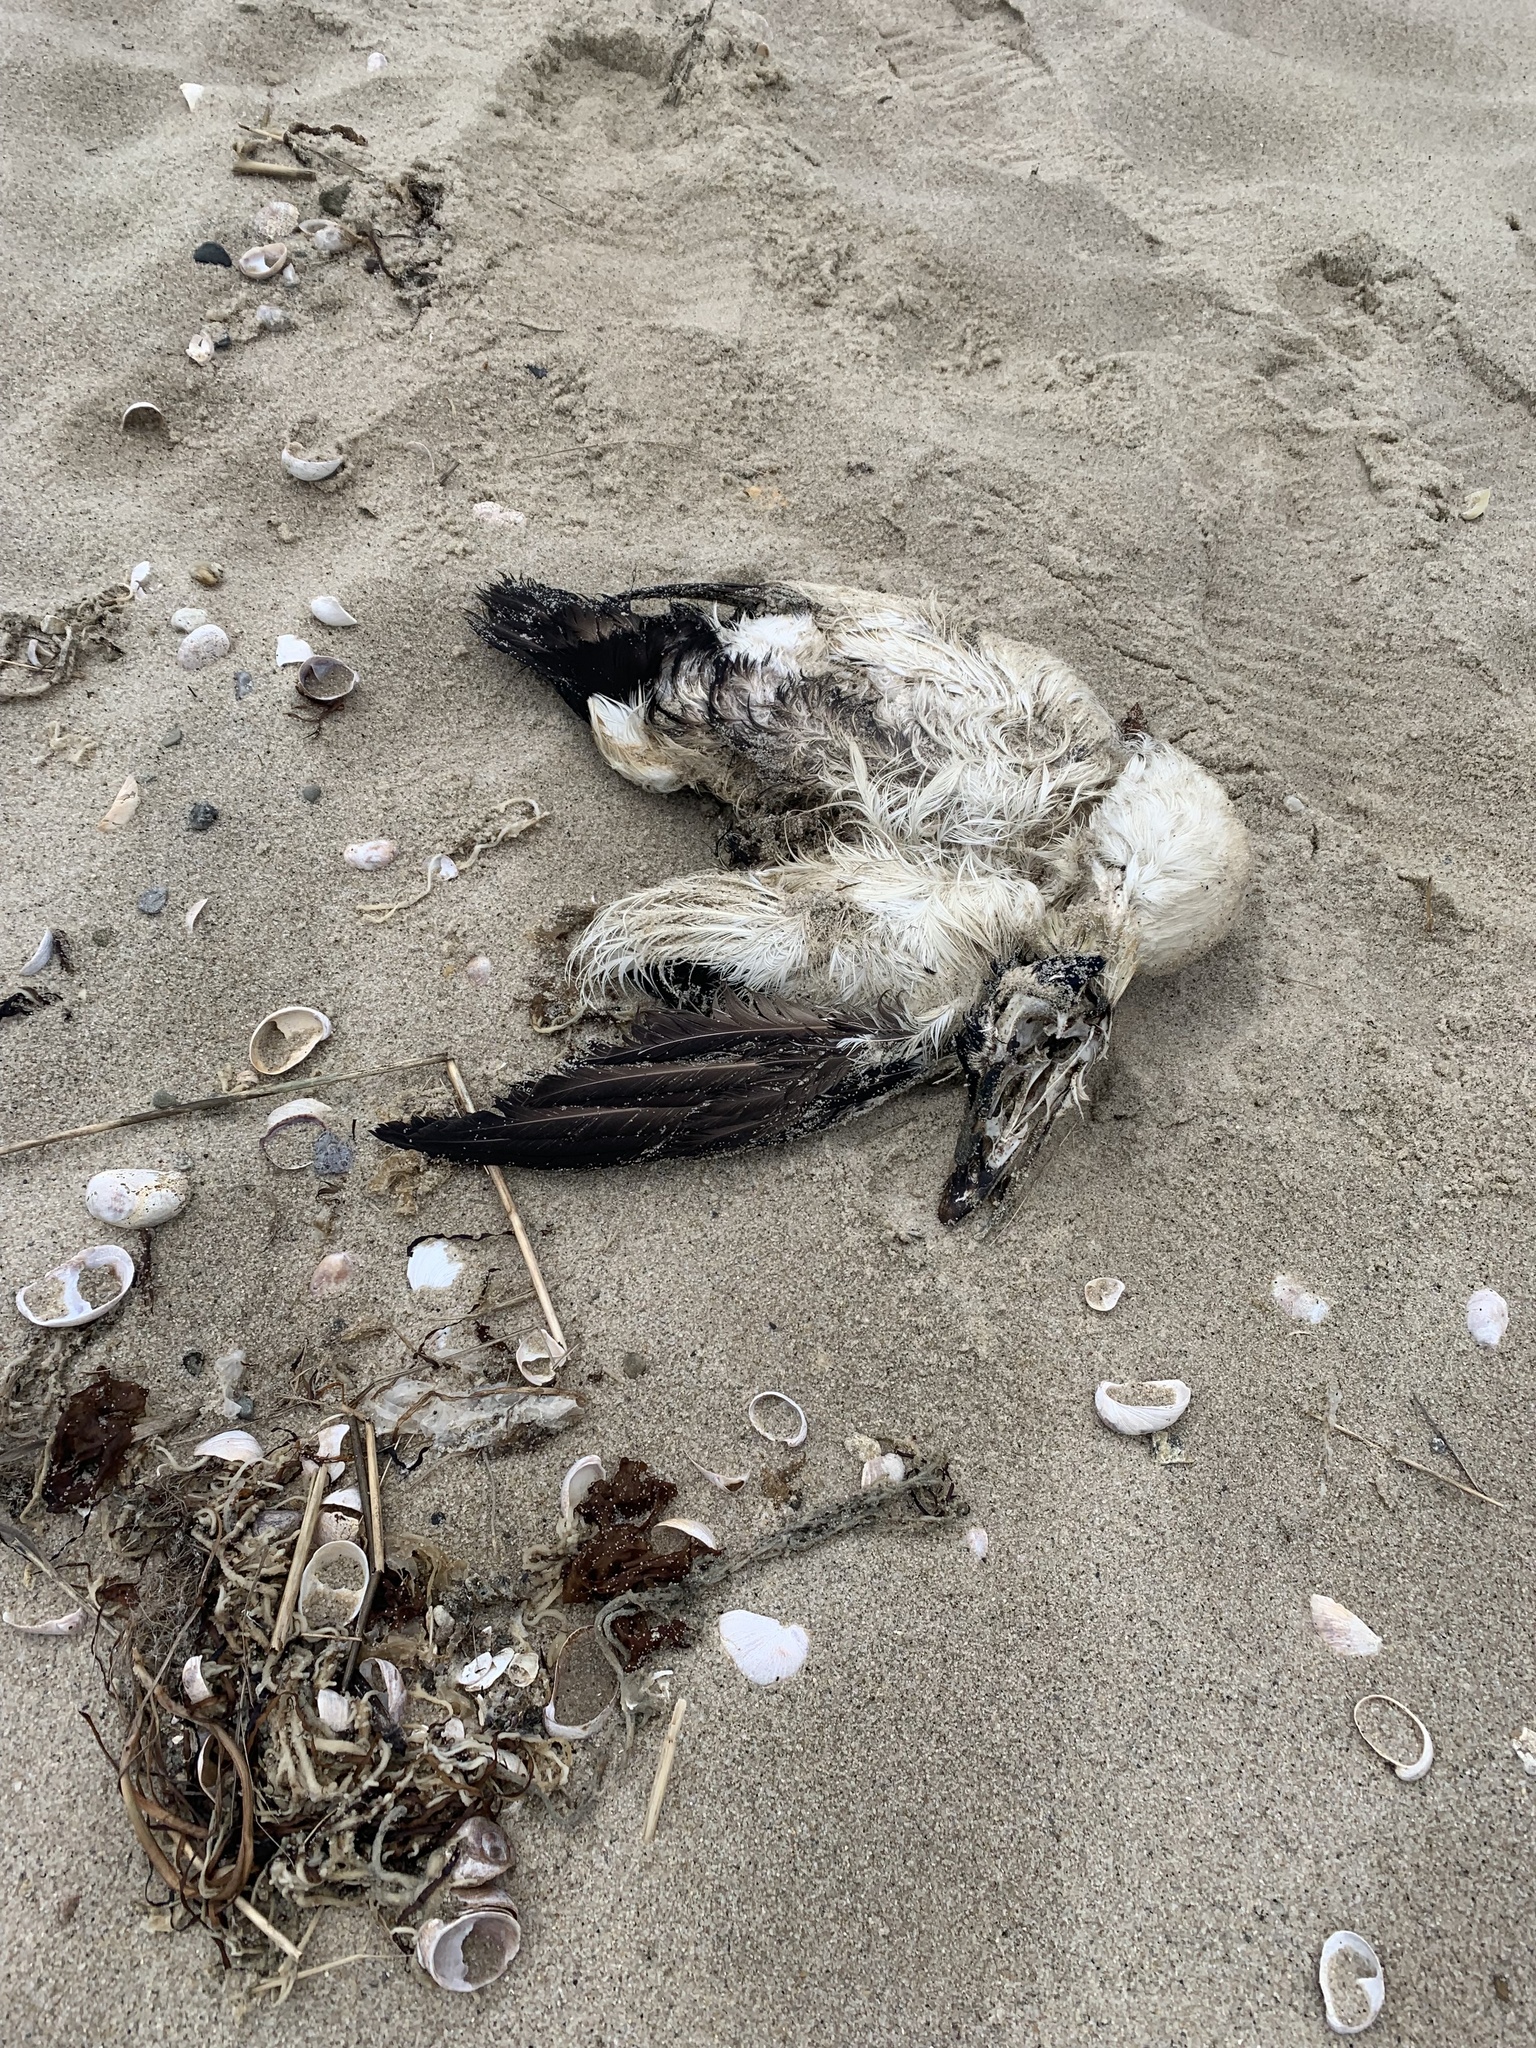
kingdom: Animalia
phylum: Chordata
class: Aves
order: Anseriformes
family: Anatidae
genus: Somateria
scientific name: Somateria mollissima
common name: Common eider
